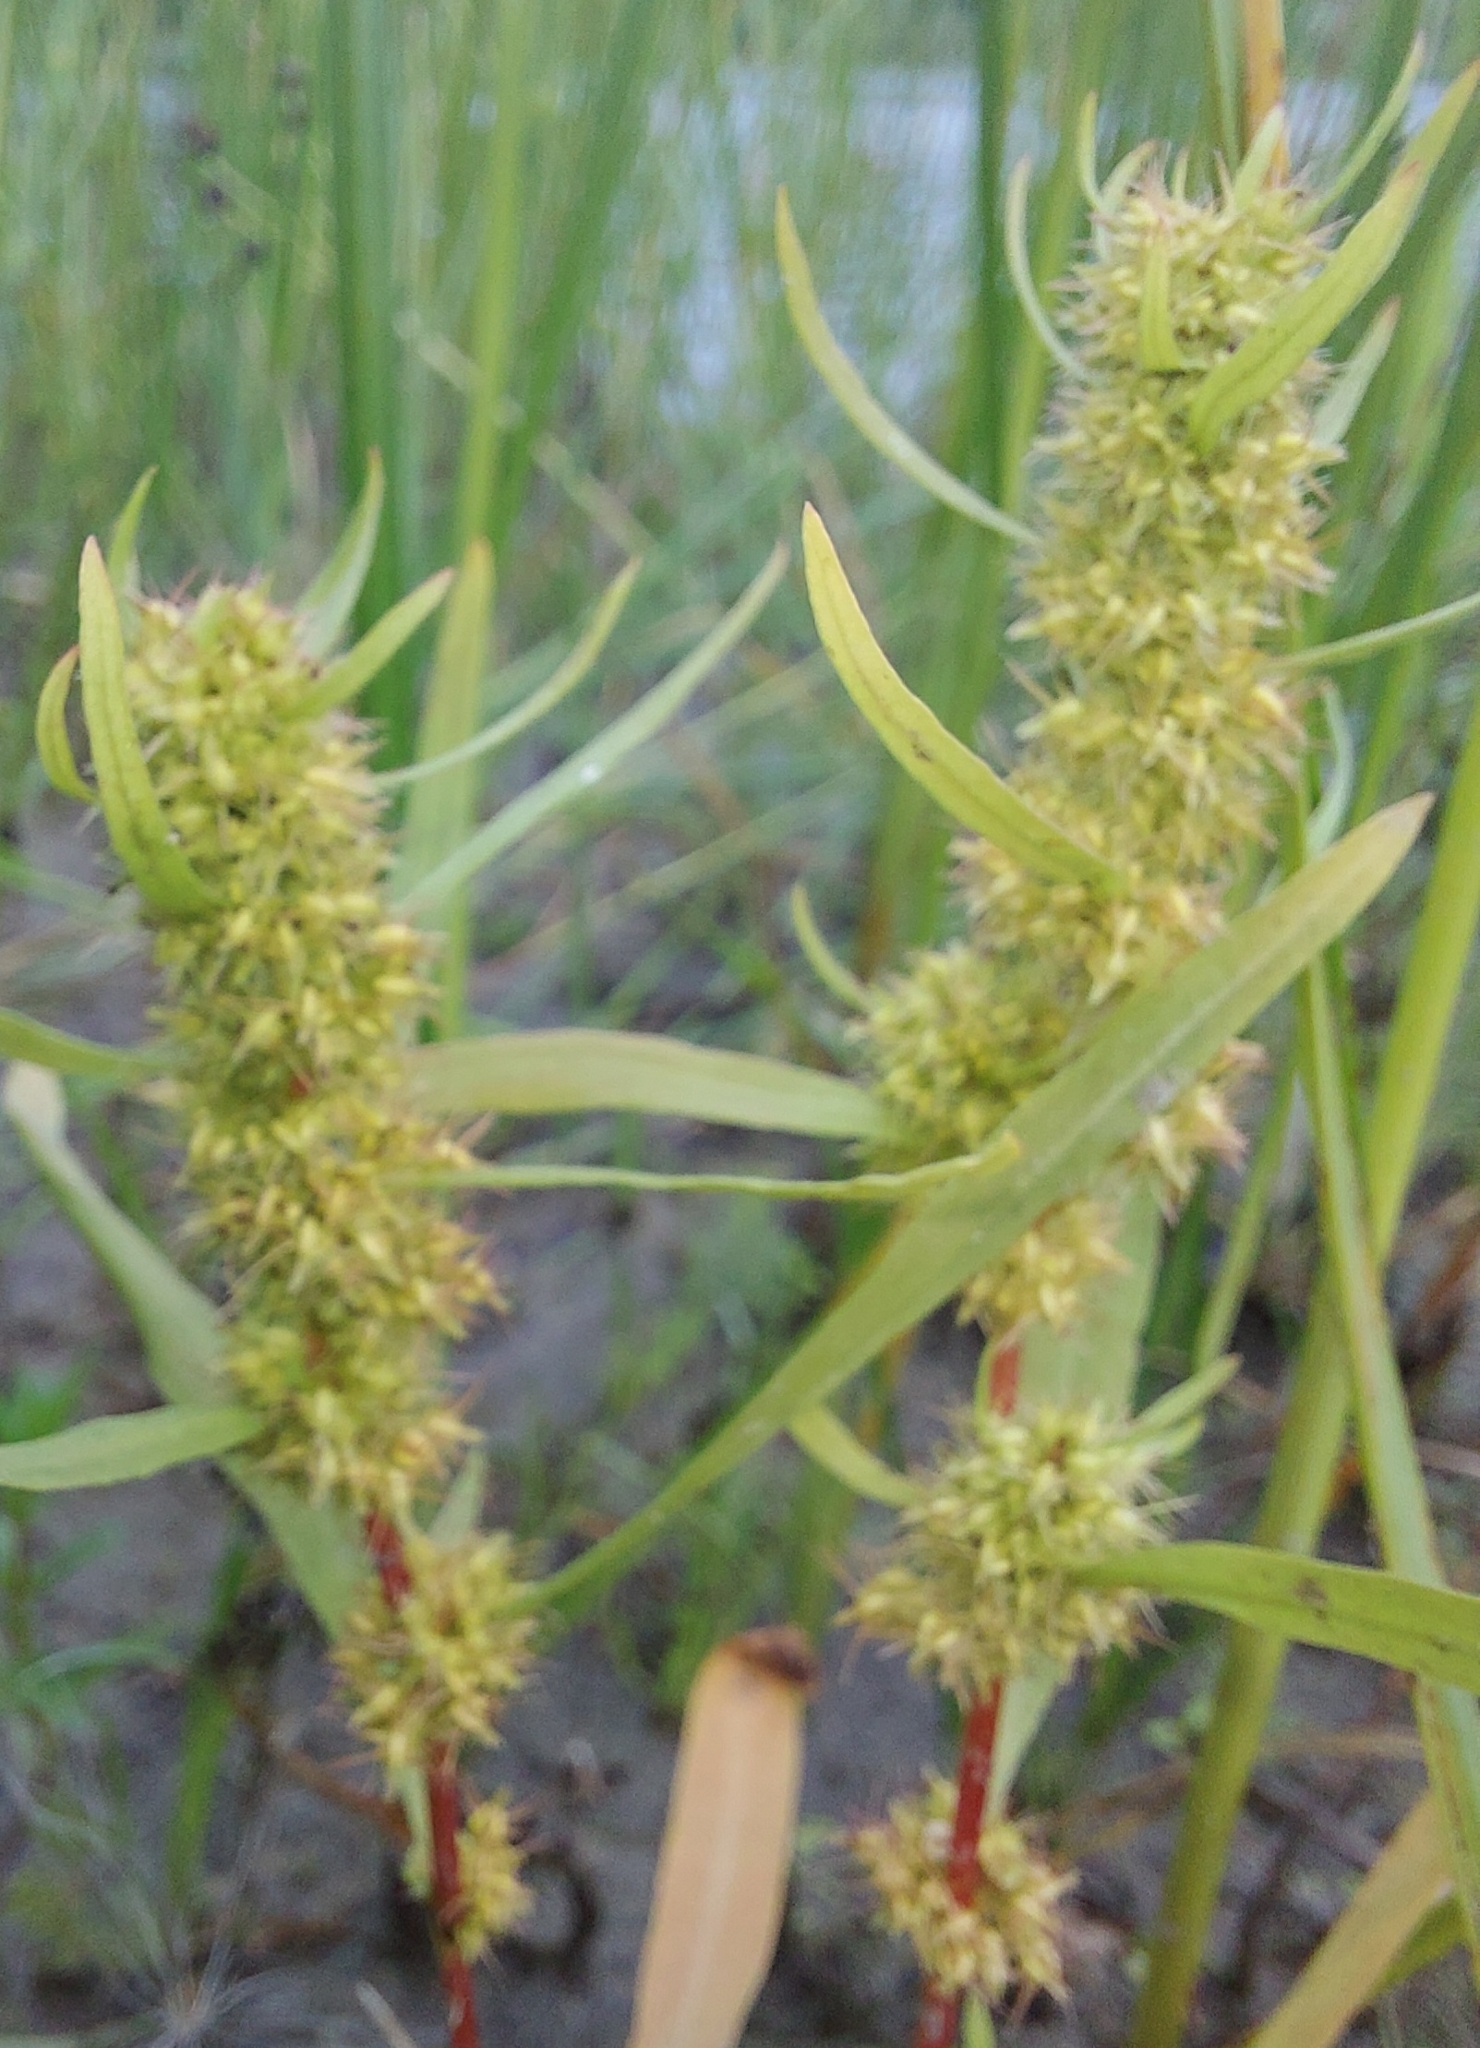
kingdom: Plantae
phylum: Tracheophyta
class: Magnoliopsida
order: Caryophyllales
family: Polygonaceae
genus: Rumex
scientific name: Rumex maritimus
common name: Golden dock
